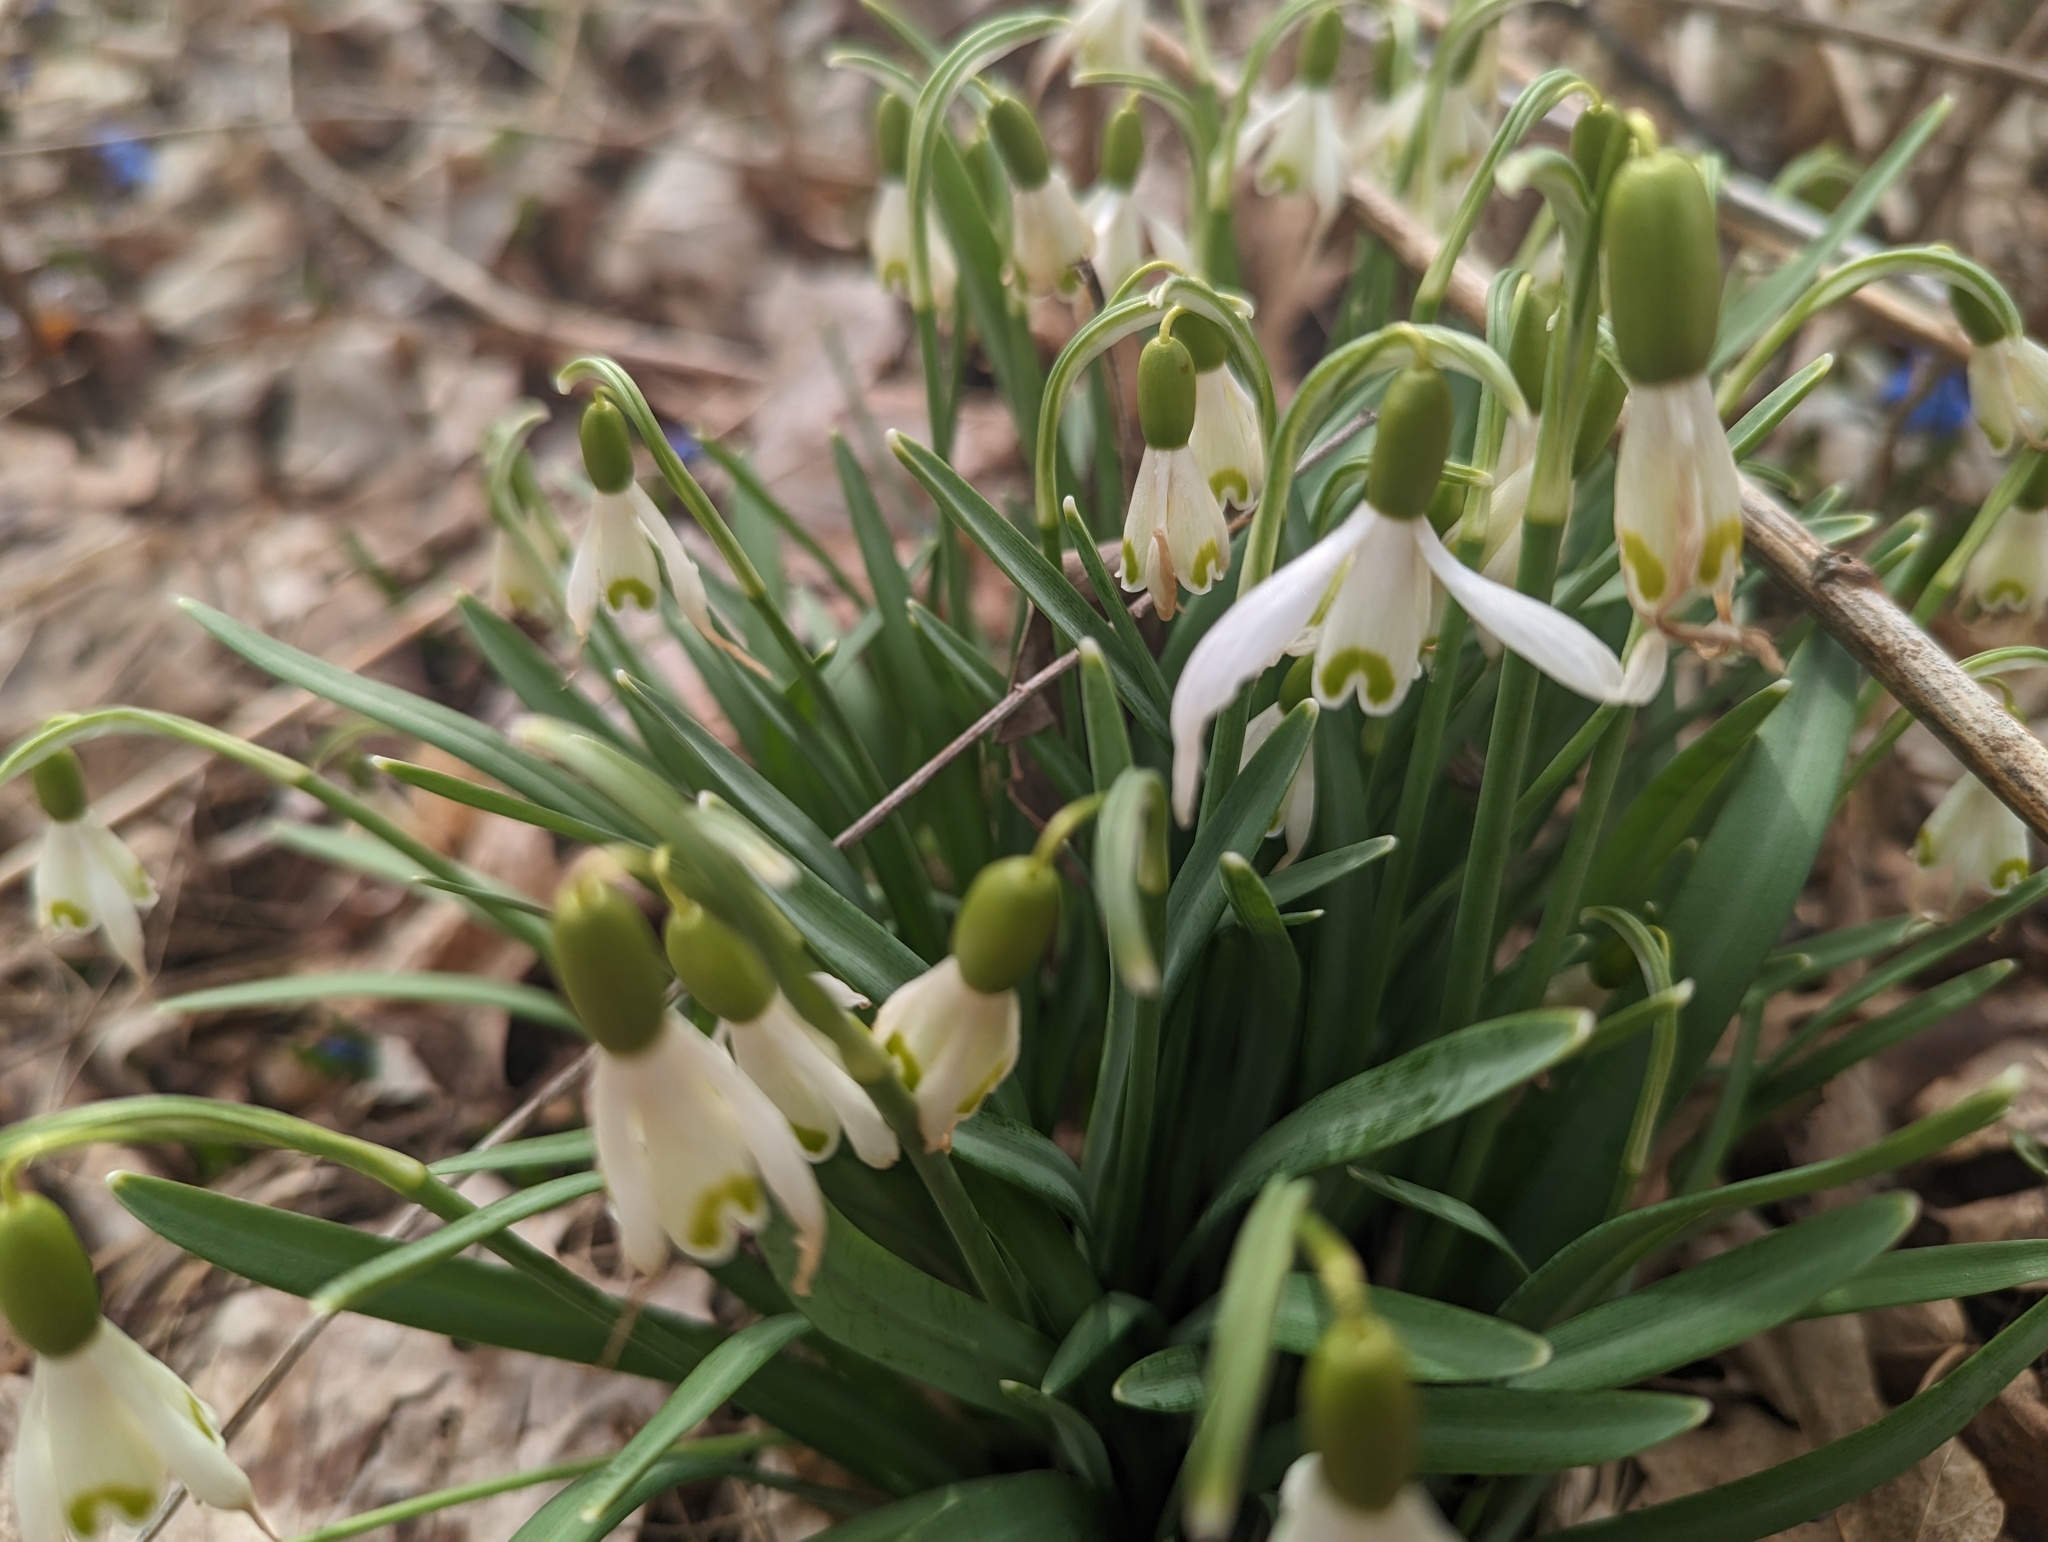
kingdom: Plantae
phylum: Tracheophyta
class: Liliopsida
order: Asparagales
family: Amaryllidaceae
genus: Galanthus
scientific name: Galanthus nivalis
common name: Snowdrop
